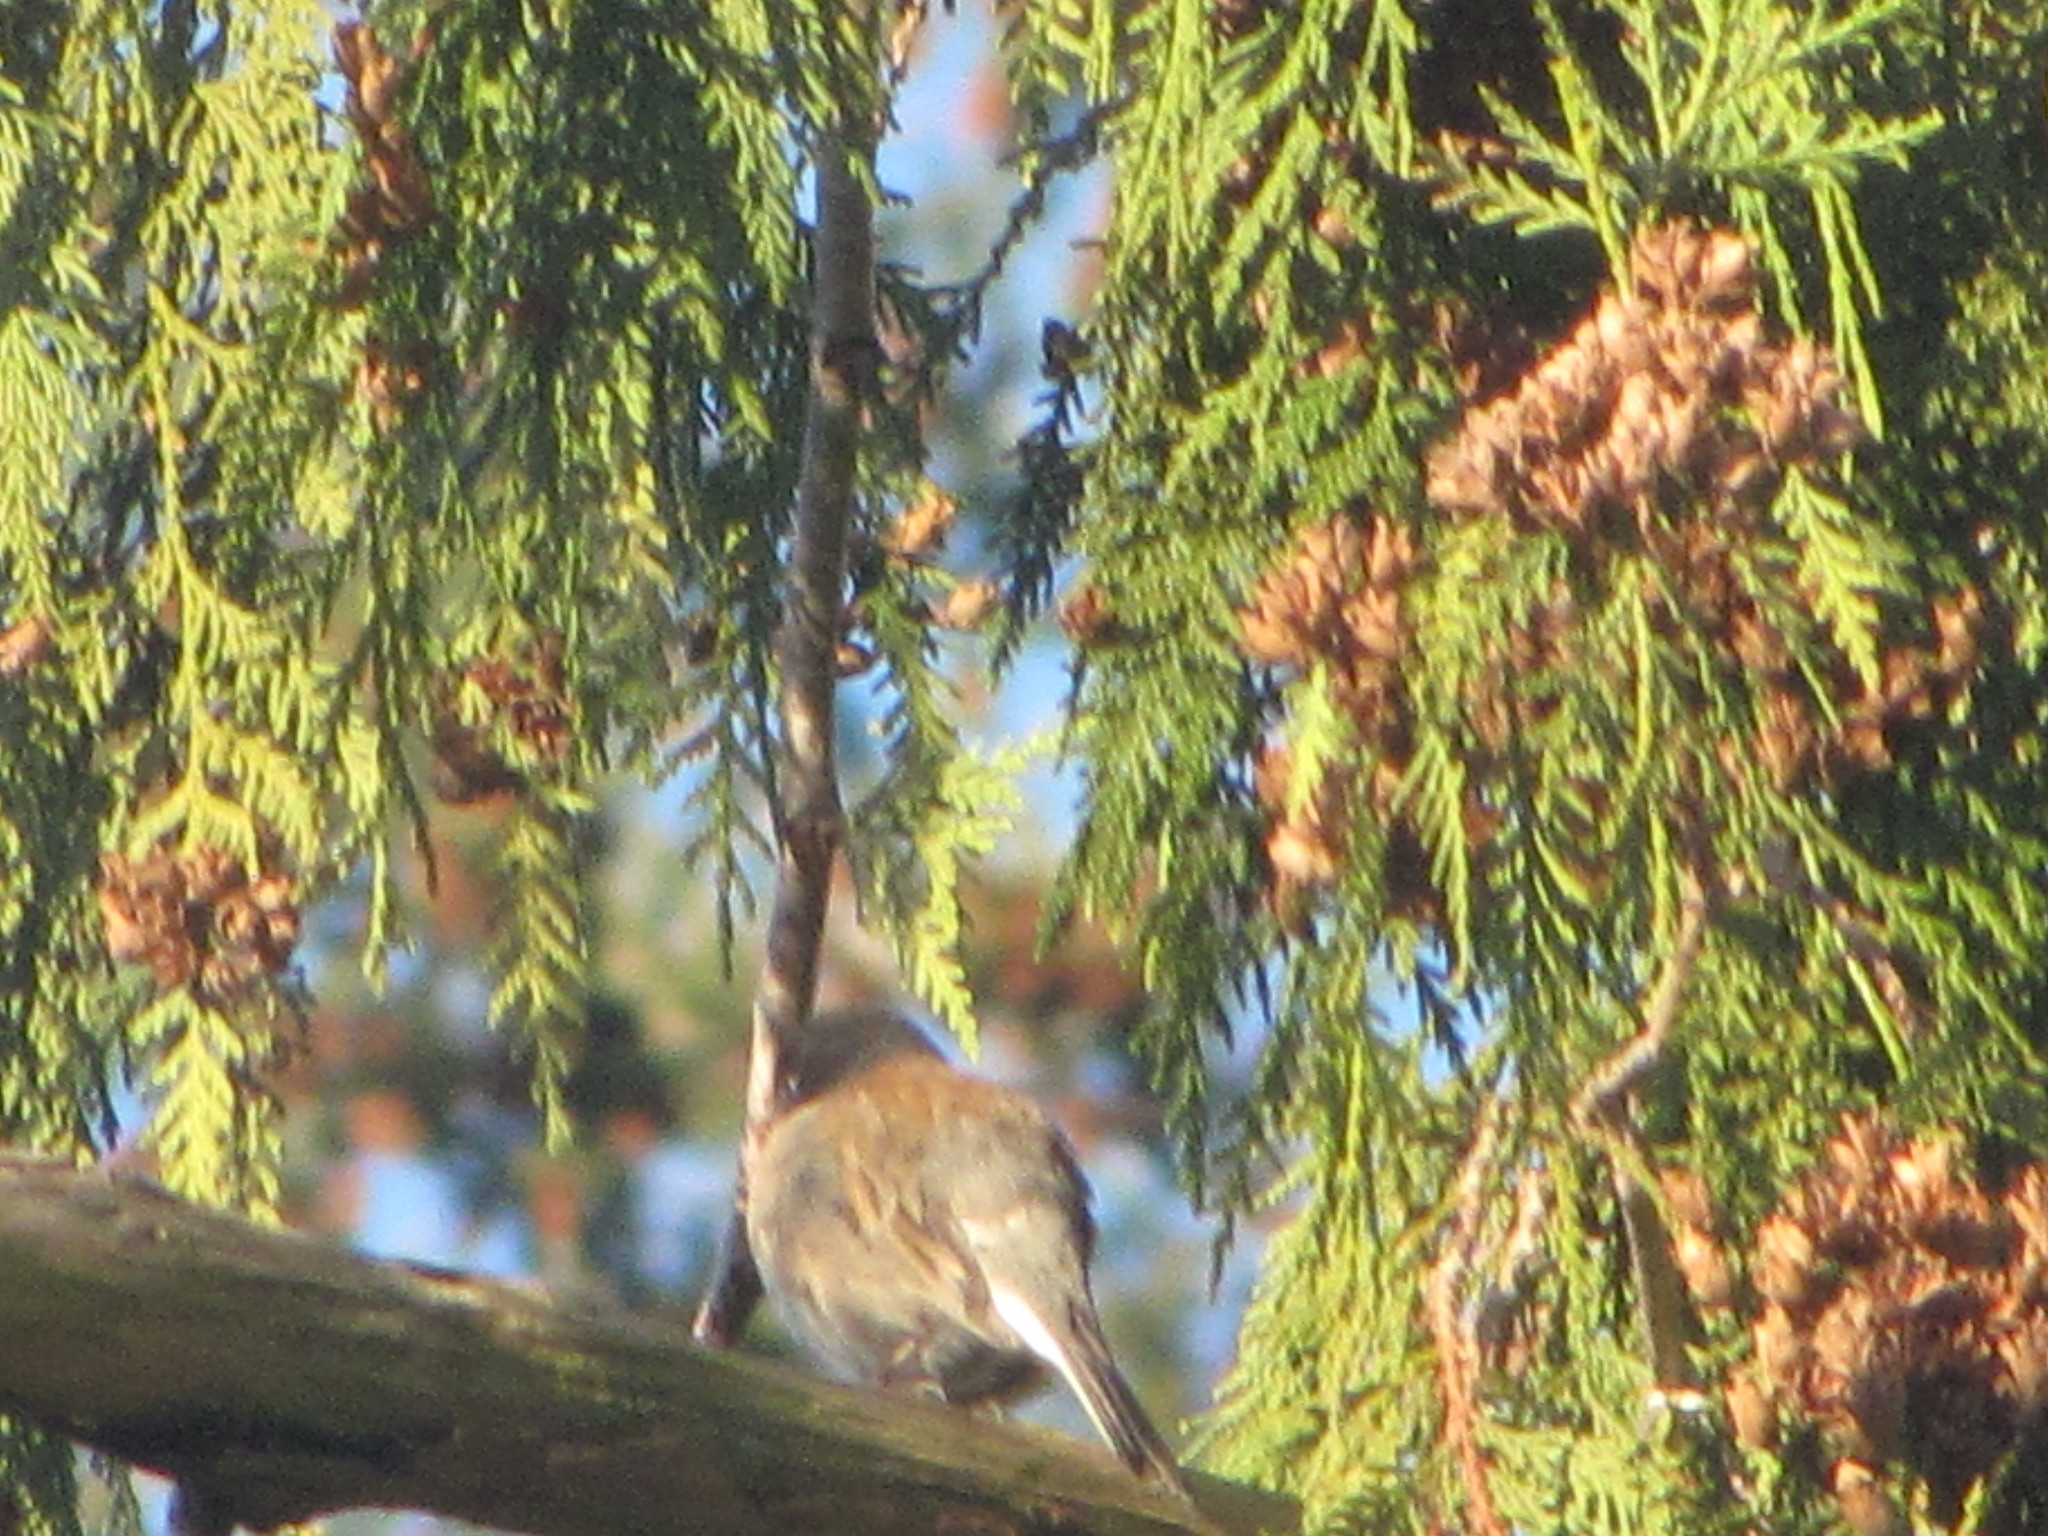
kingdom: Animalia
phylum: Chordata
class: Aves
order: Passeriformes
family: Passerellidae
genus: Junco
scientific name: Junco hyemalis
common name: Dark-eyed junco
